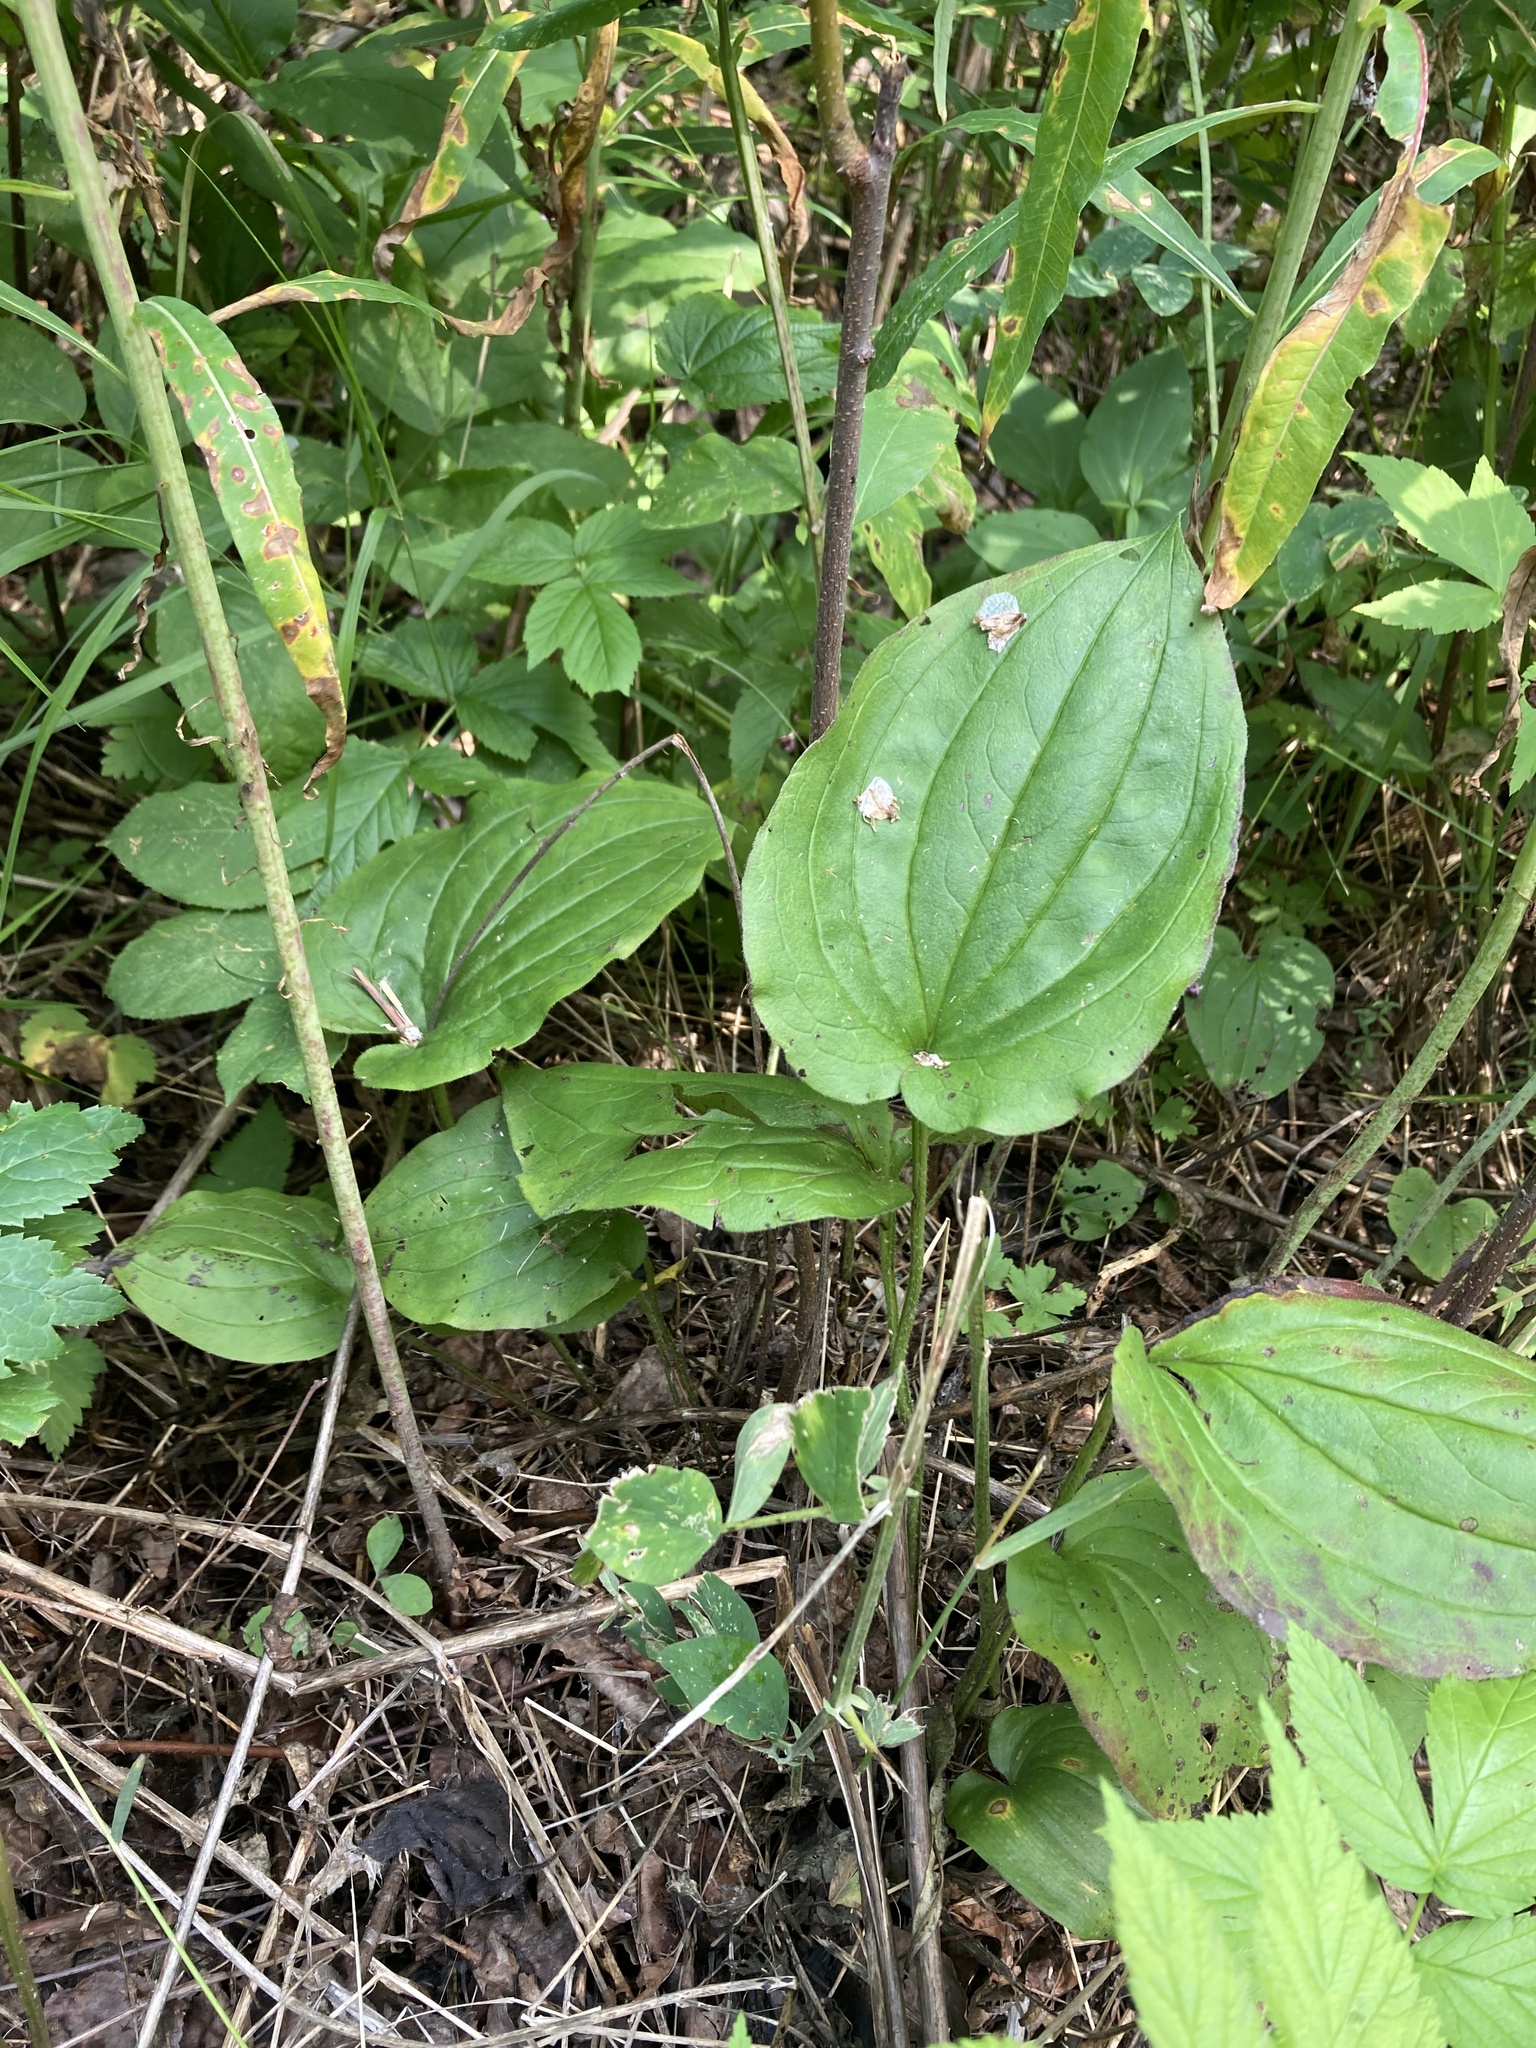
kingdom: Plantae
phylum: Tracheophyta
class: Liliopsida
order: Asparagales
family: Asparagaceae
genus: Maianthemum
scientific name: Maianthemum canadense
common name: False lily-of-the-valley
